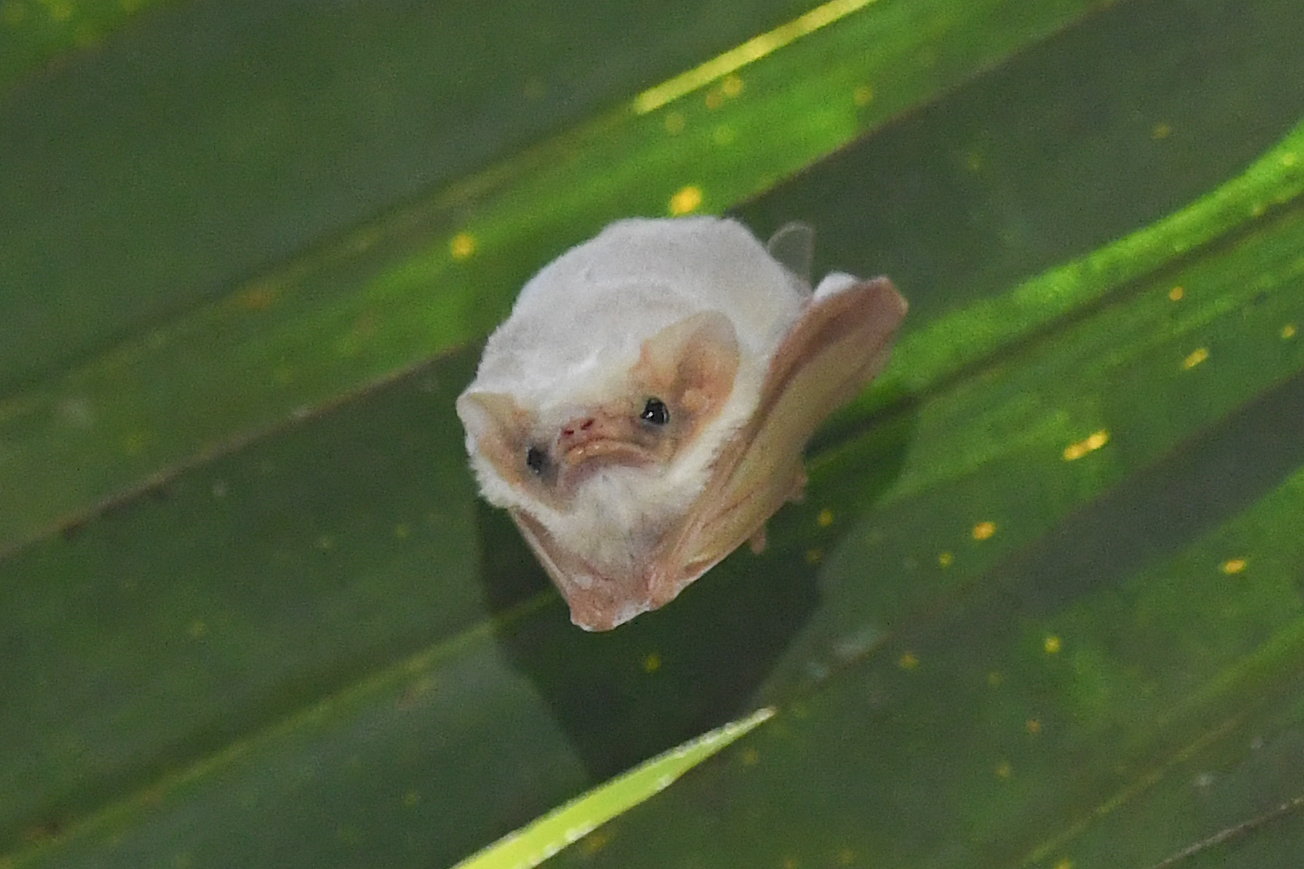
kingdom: Animalia
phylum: Chordata
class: Mammalia
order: Chiroptera
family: Emballonuridae
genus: Diclidurus
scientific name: Diclidurus albus
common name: Northern ghost bat
